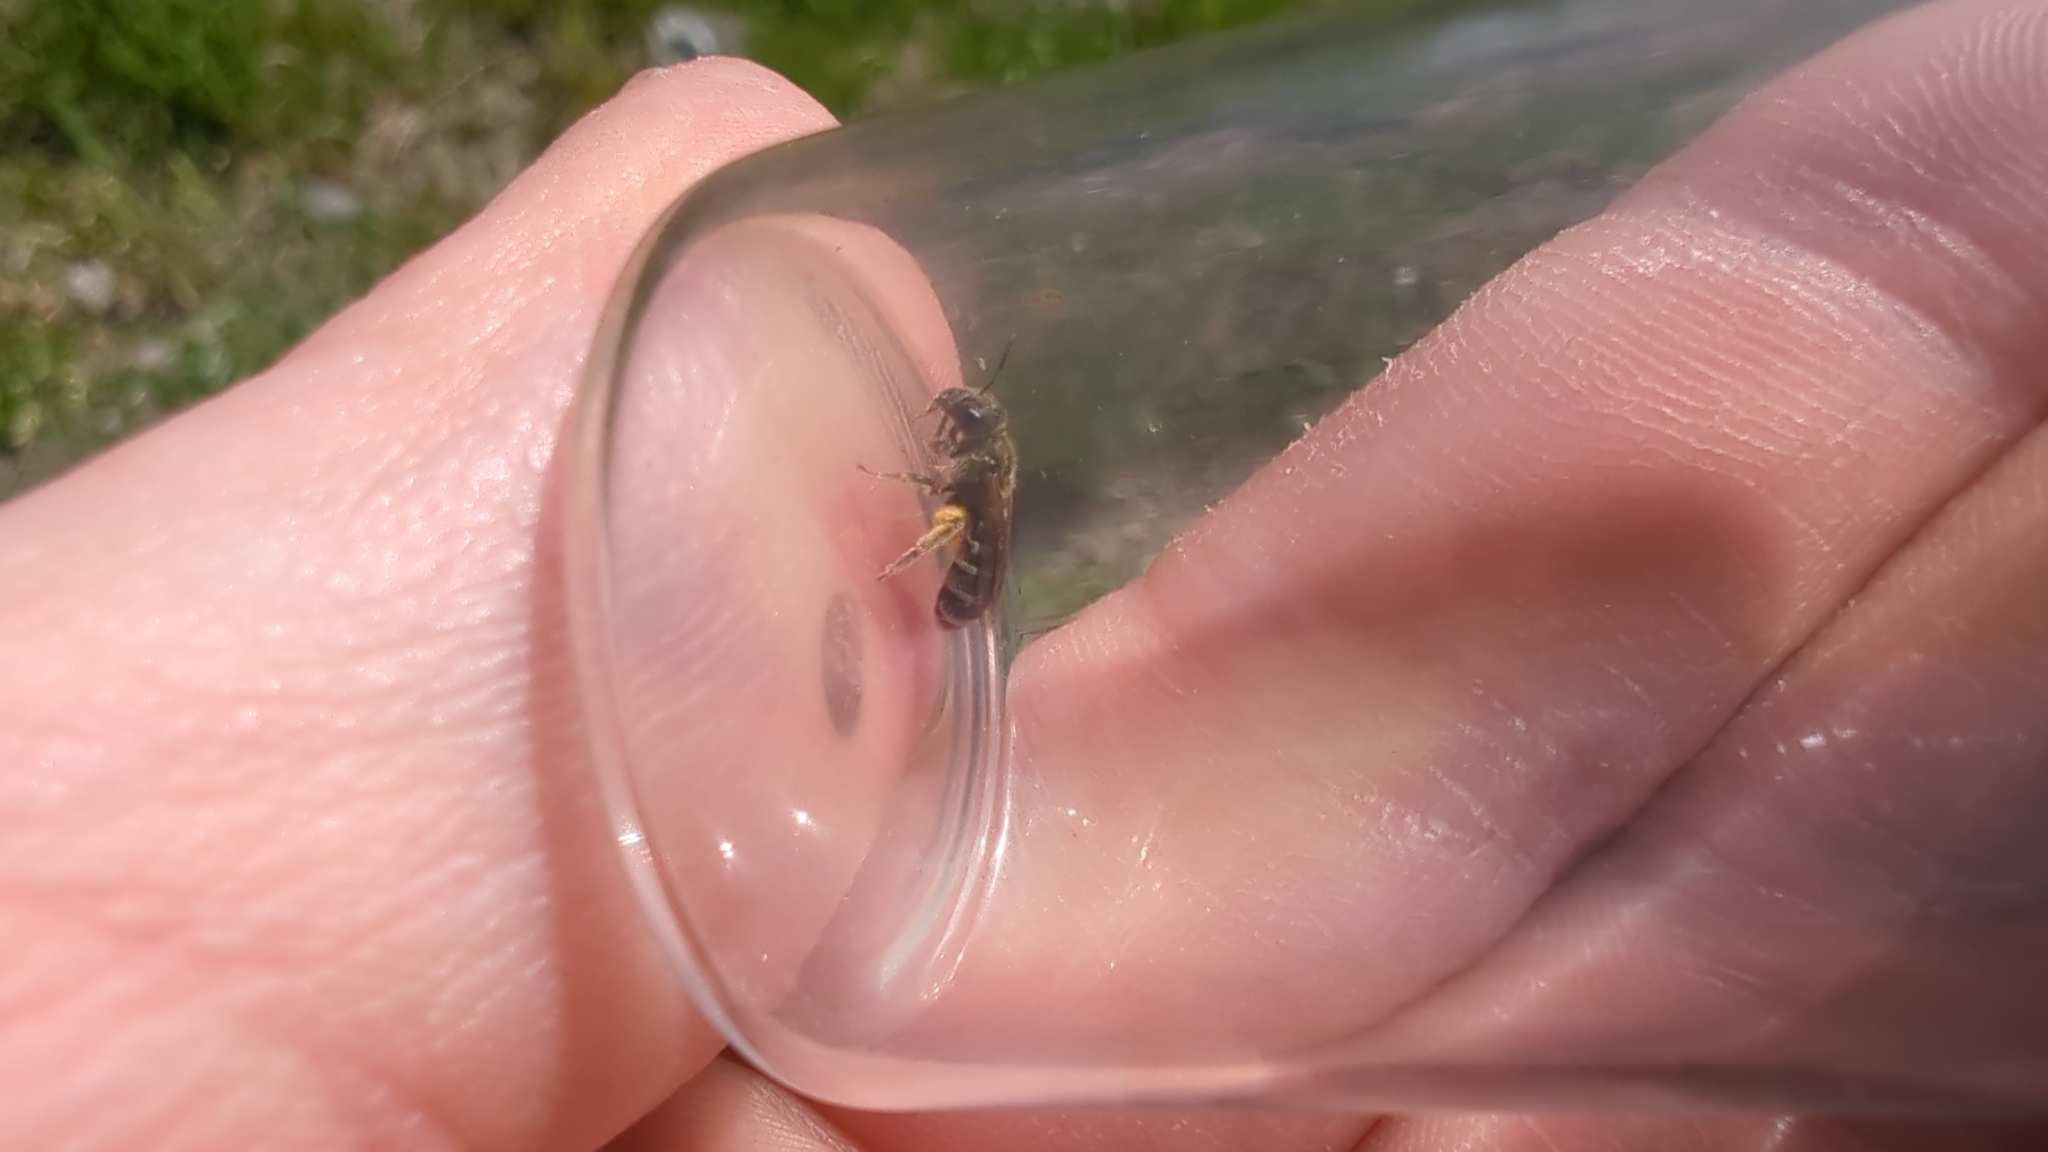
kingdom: Animalia
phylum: Arthropoda
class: Insecta
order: Hymenoptera
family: Halictidae
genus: Halictus
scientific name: Halictus confusus
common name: Southern bronze furrow bee
